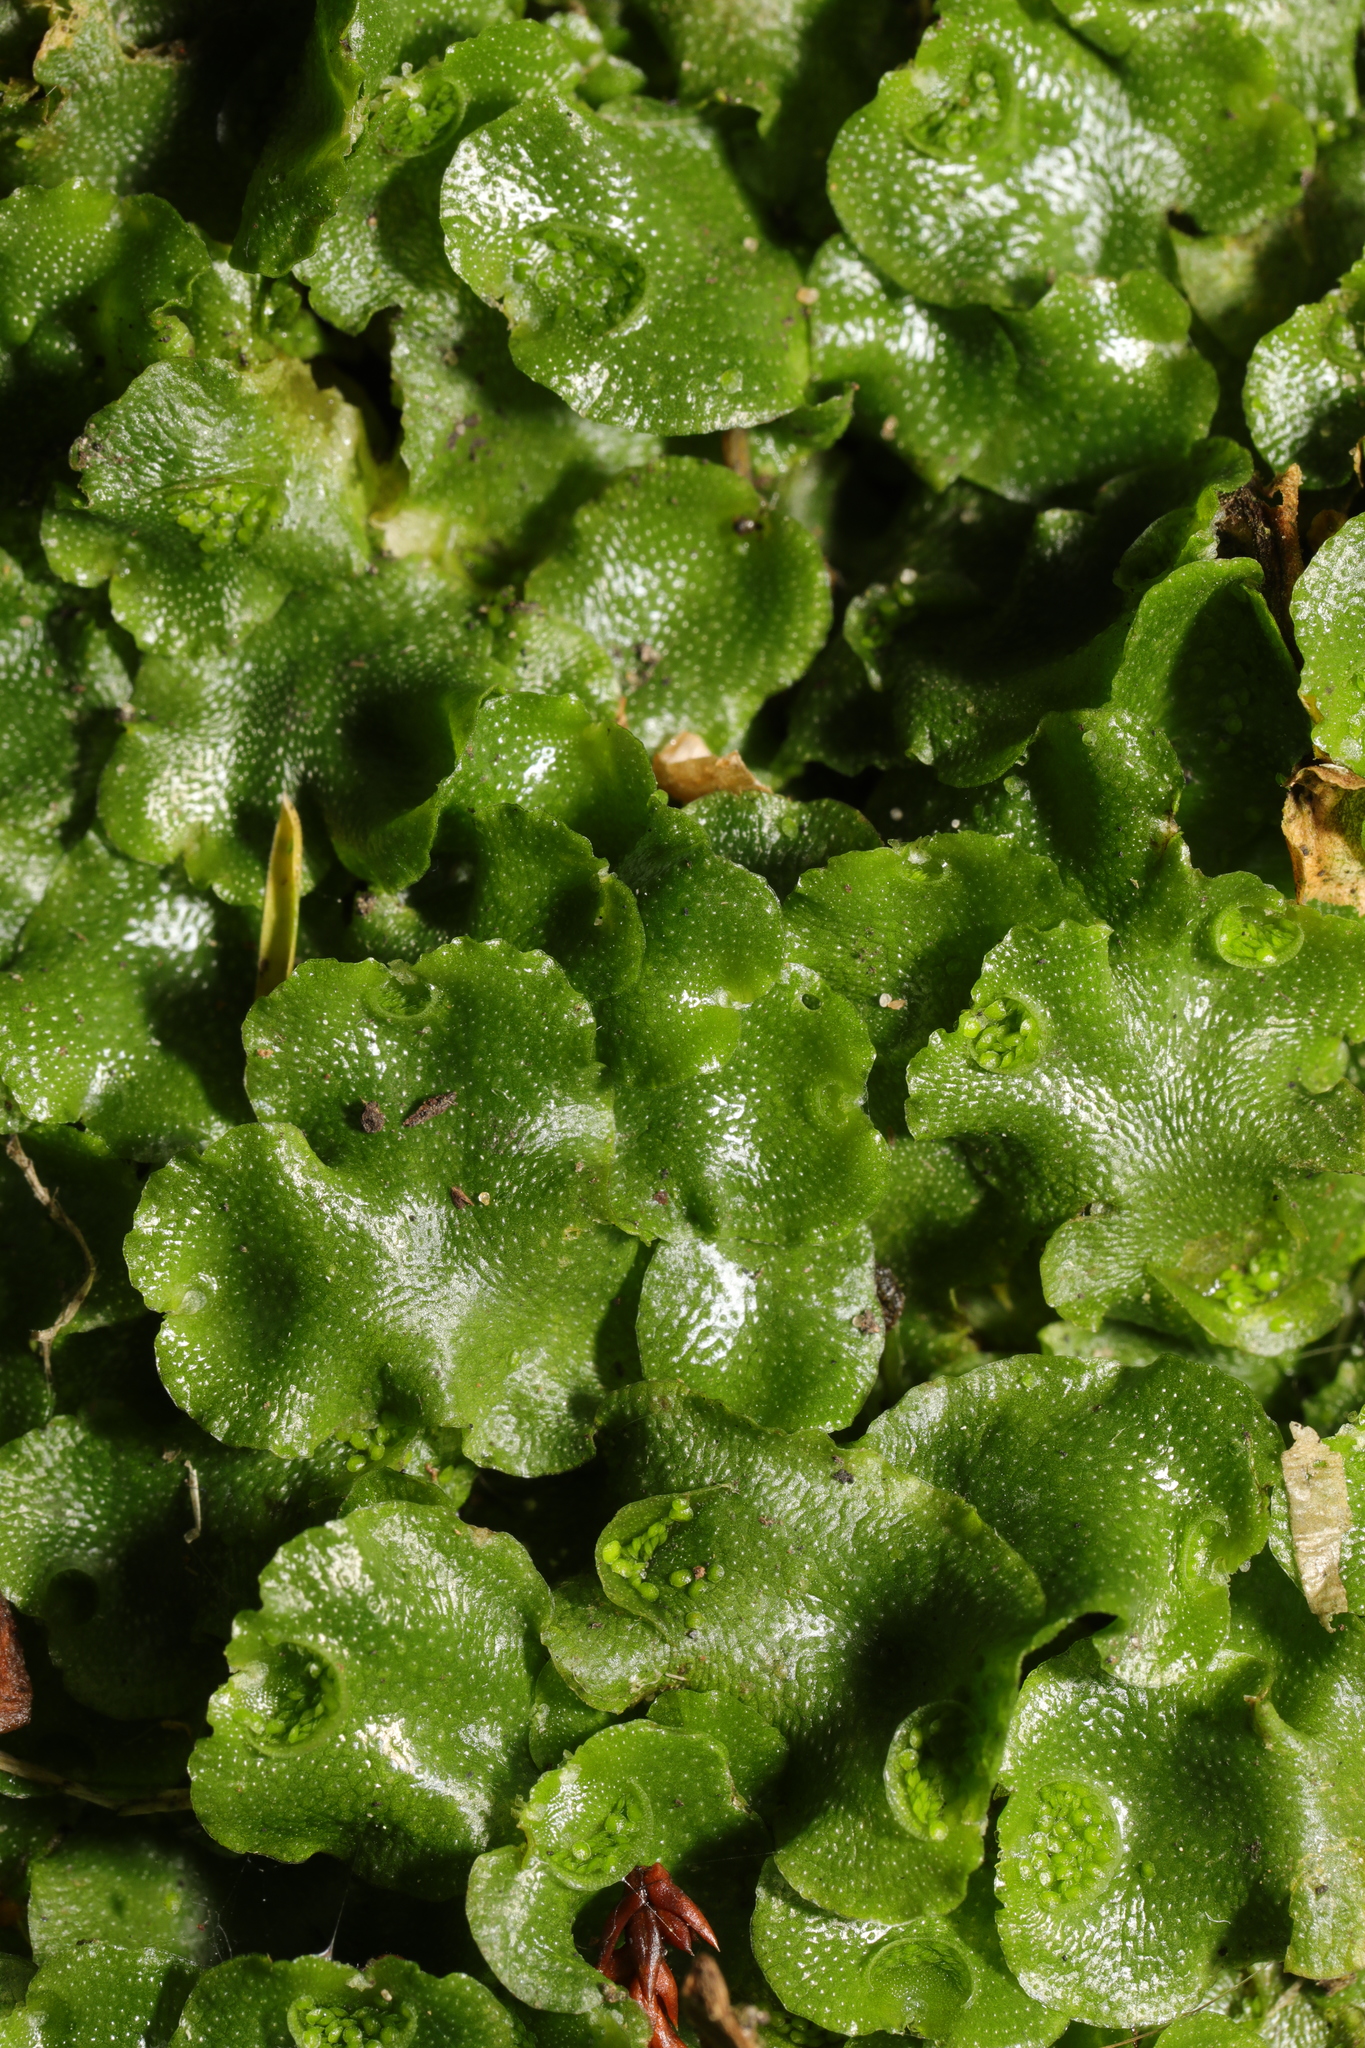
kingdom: Plantae
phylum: Marchantiophyta
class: Marchantiopsida
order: Lunulariales
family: Lunulariaceae
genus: Lunularia
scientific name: Lunularia cruciata
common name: Crescent-cup liverwort
